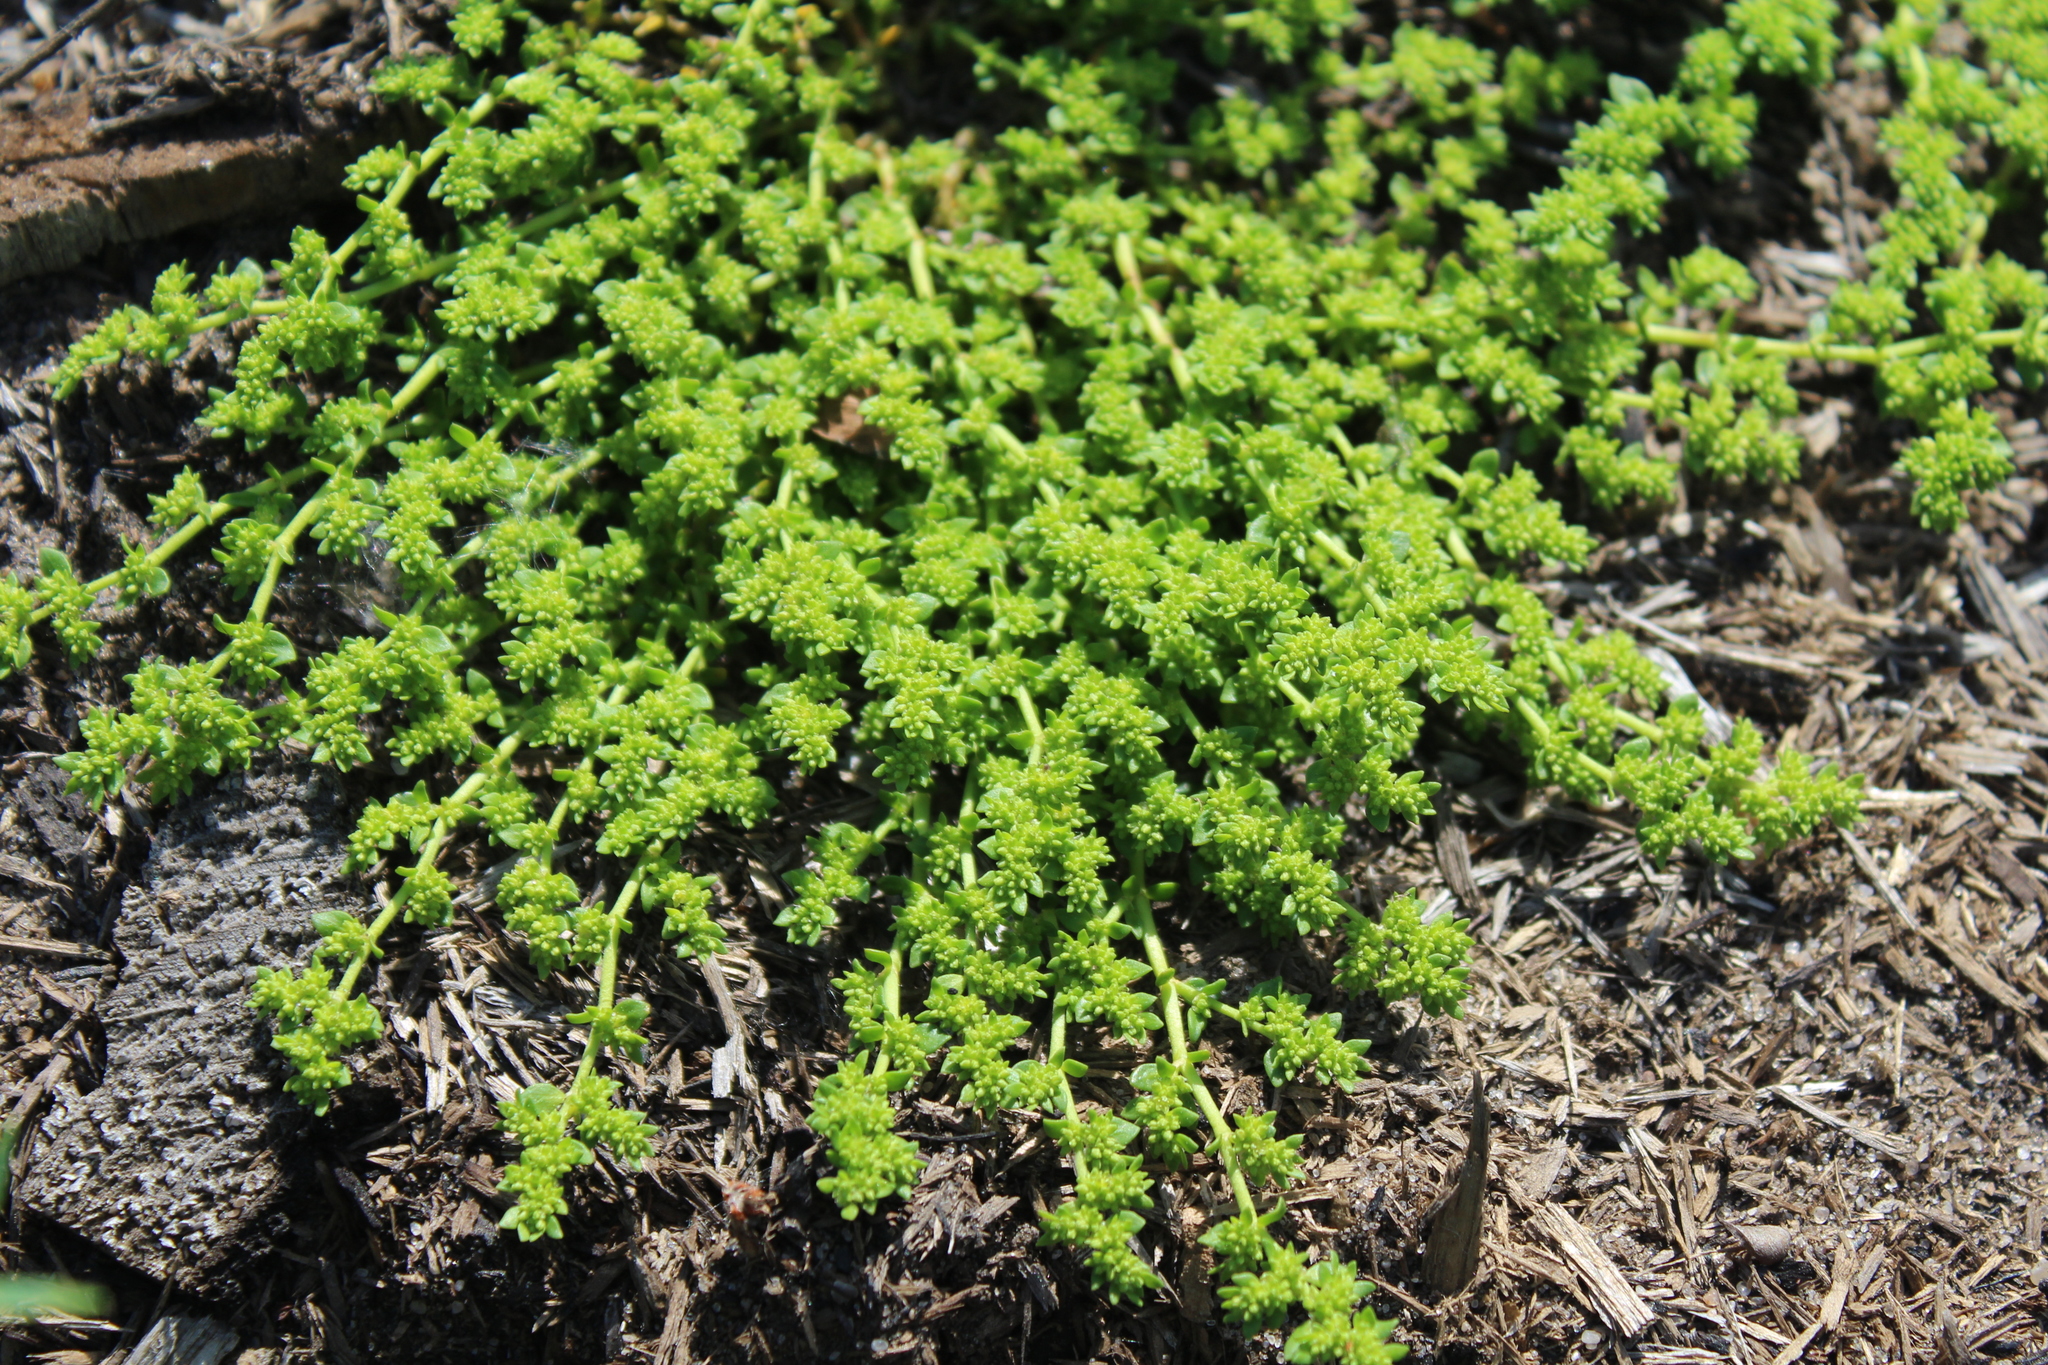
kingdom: Plantae
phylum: Tracheophyta
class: Magnoliopsida
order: Caryophyllales
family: Caryophyllaceae
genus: Herniaria
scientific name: Herniaria glabra
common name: Smooth rupturewort
